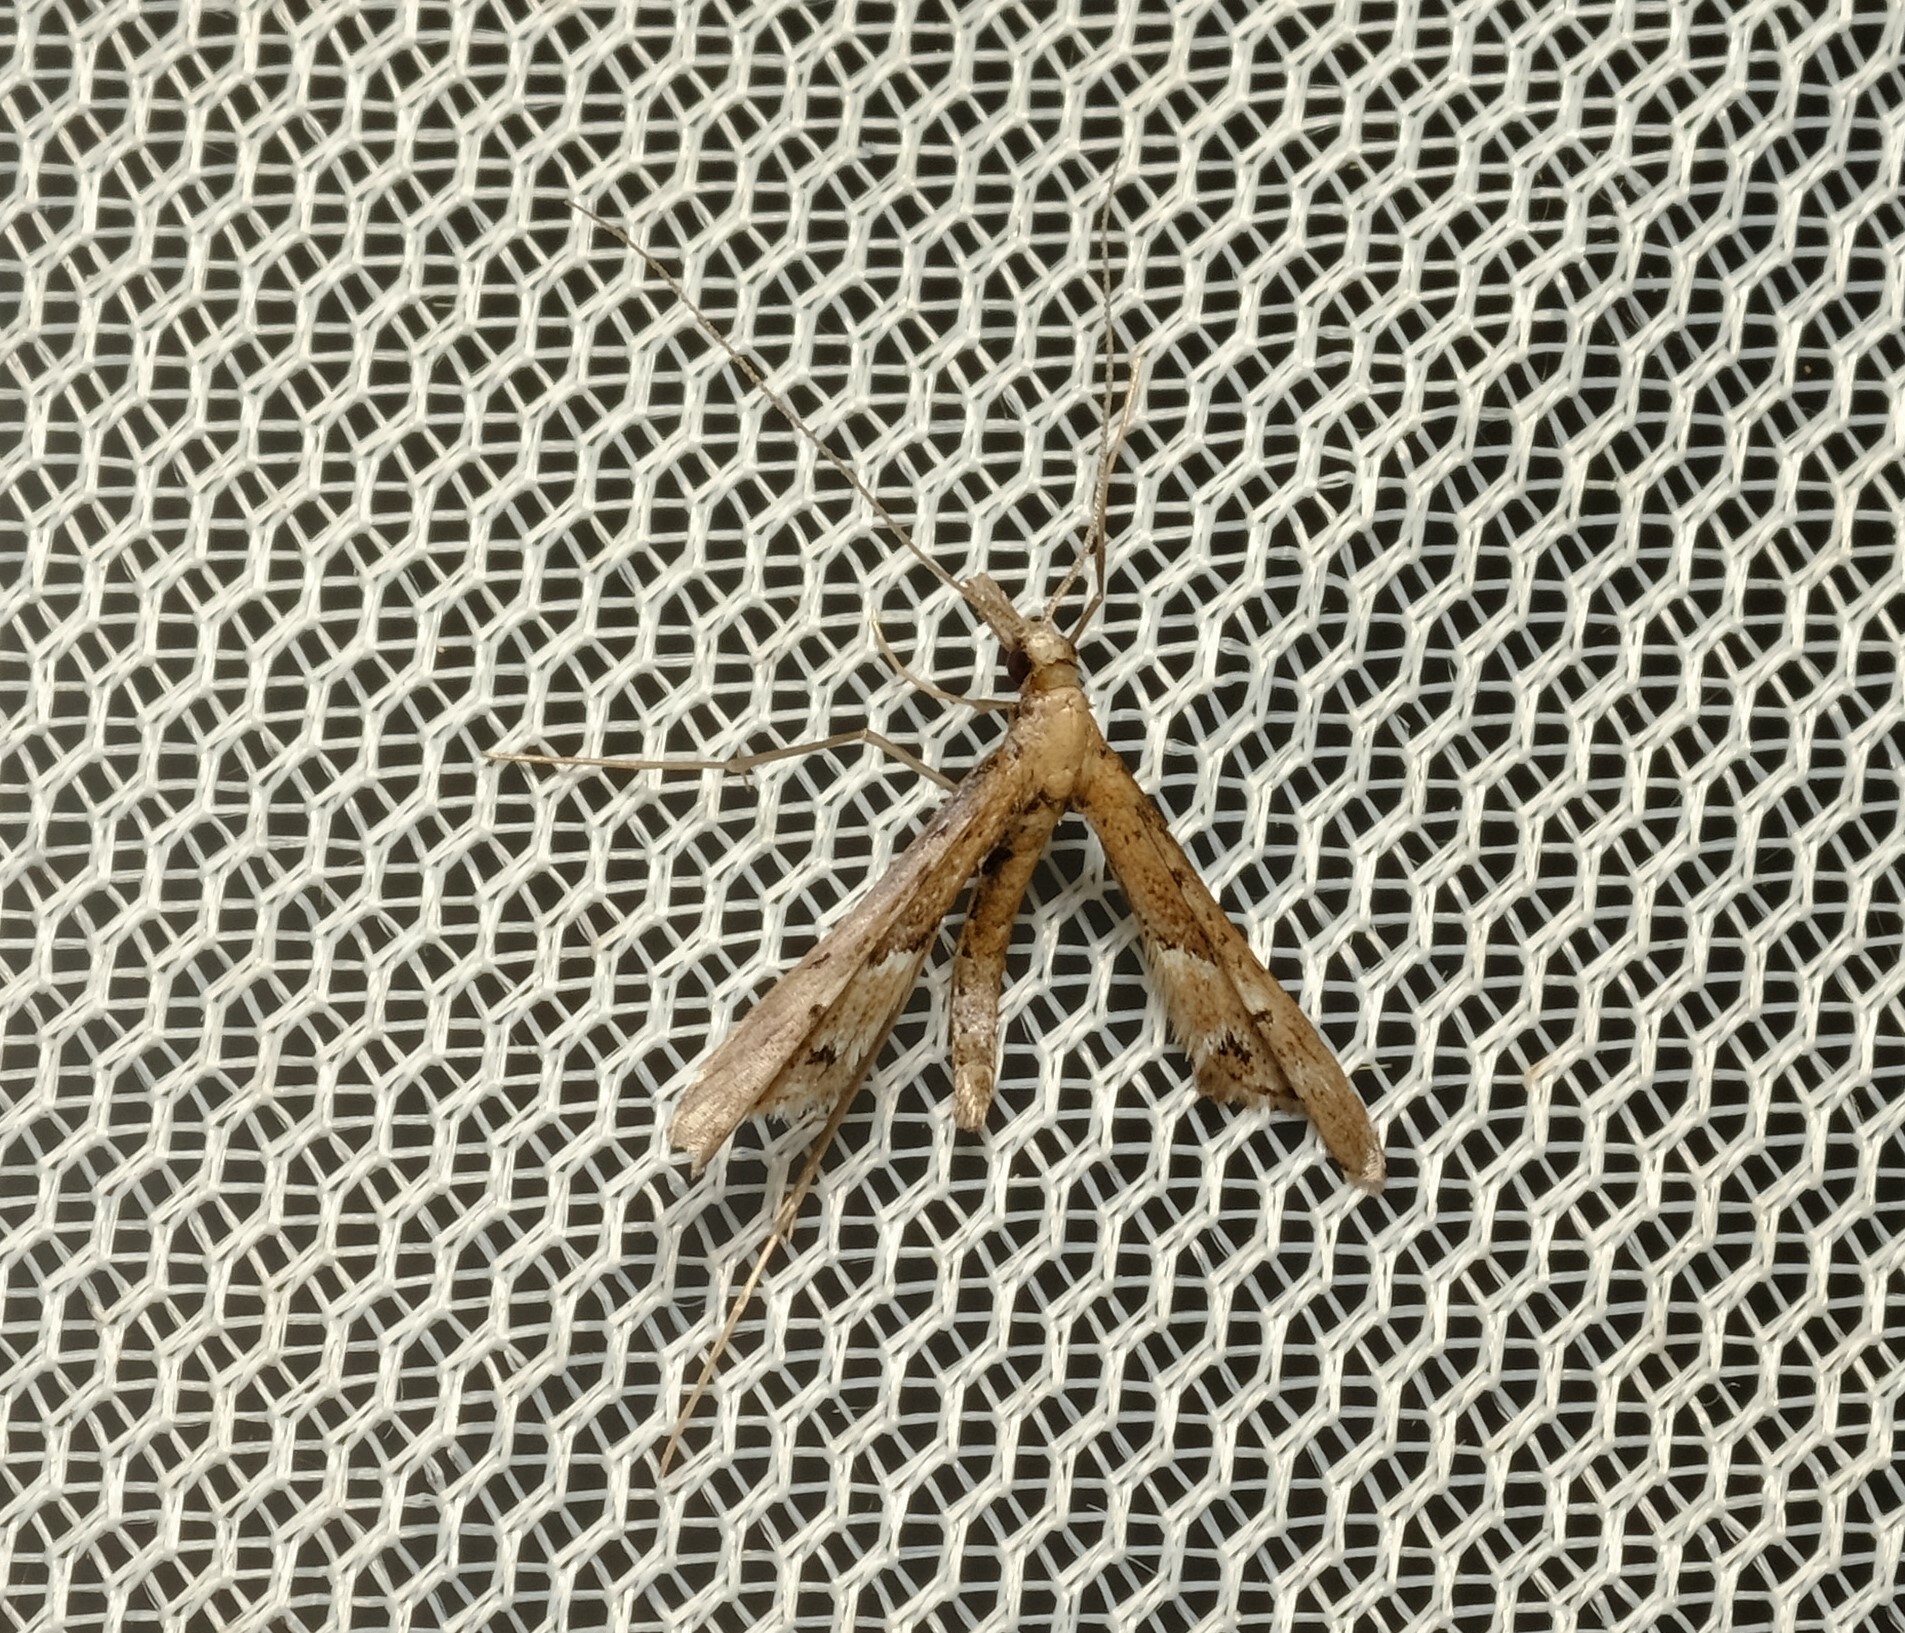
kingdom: Animalia
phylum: Arthropoda
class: Insecta
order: Lepidoptera
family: Alucitidae
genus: Tineodes
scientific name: Tineodes adactylalis
